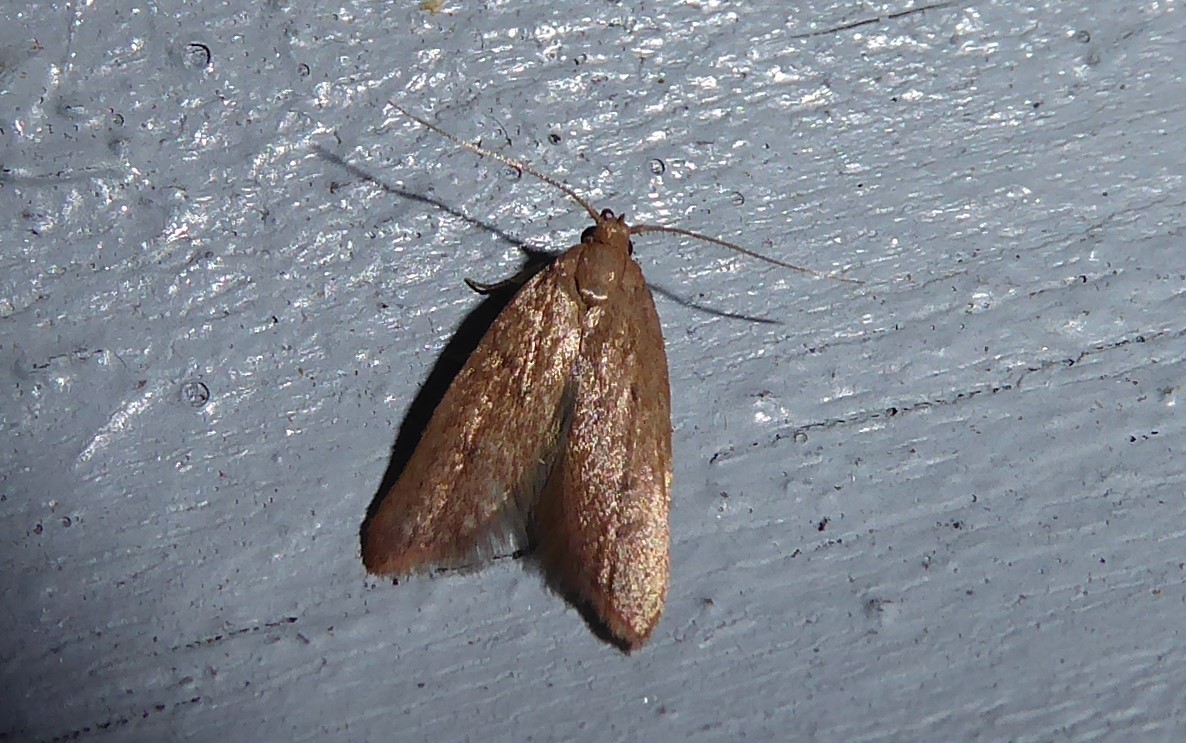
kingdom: Animalia
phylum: Arthropoda
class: Insecta
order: Lepidoptera
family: Oecophoridae
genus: Tachystola
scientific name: Tachystola acroxantha
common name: Ruddy streak
